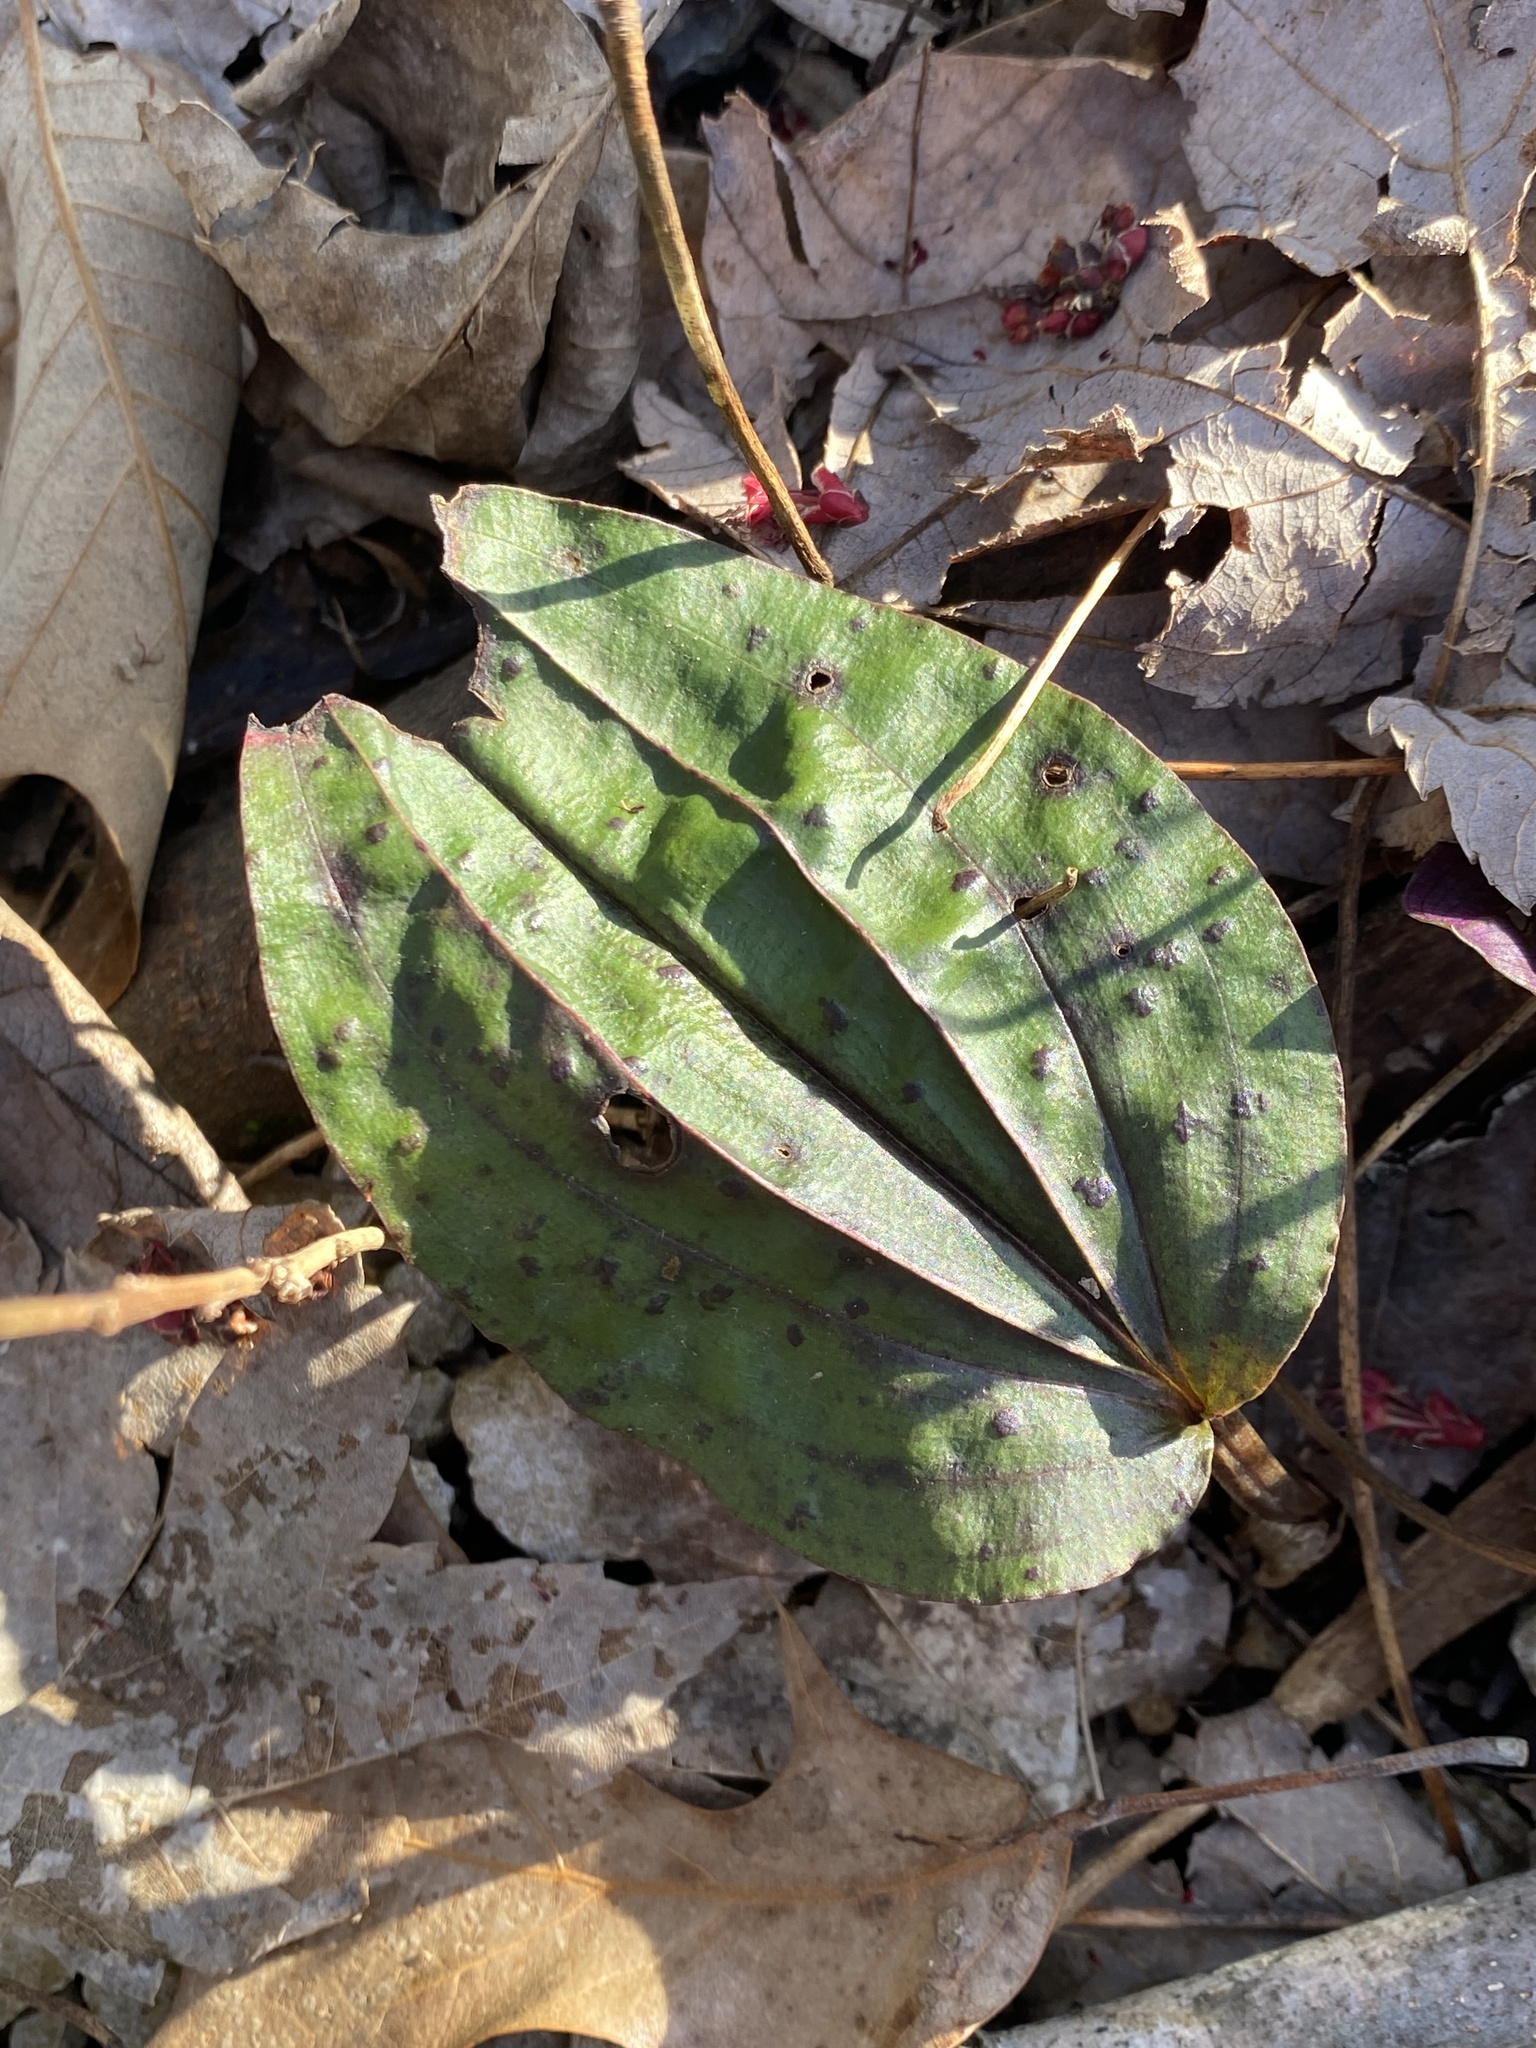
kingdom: Plantae
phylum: Tracheophyta
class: Liliopsida
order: Asparagales
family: Orchidaceae
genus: Tipularia
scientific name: Tipularia discolor
